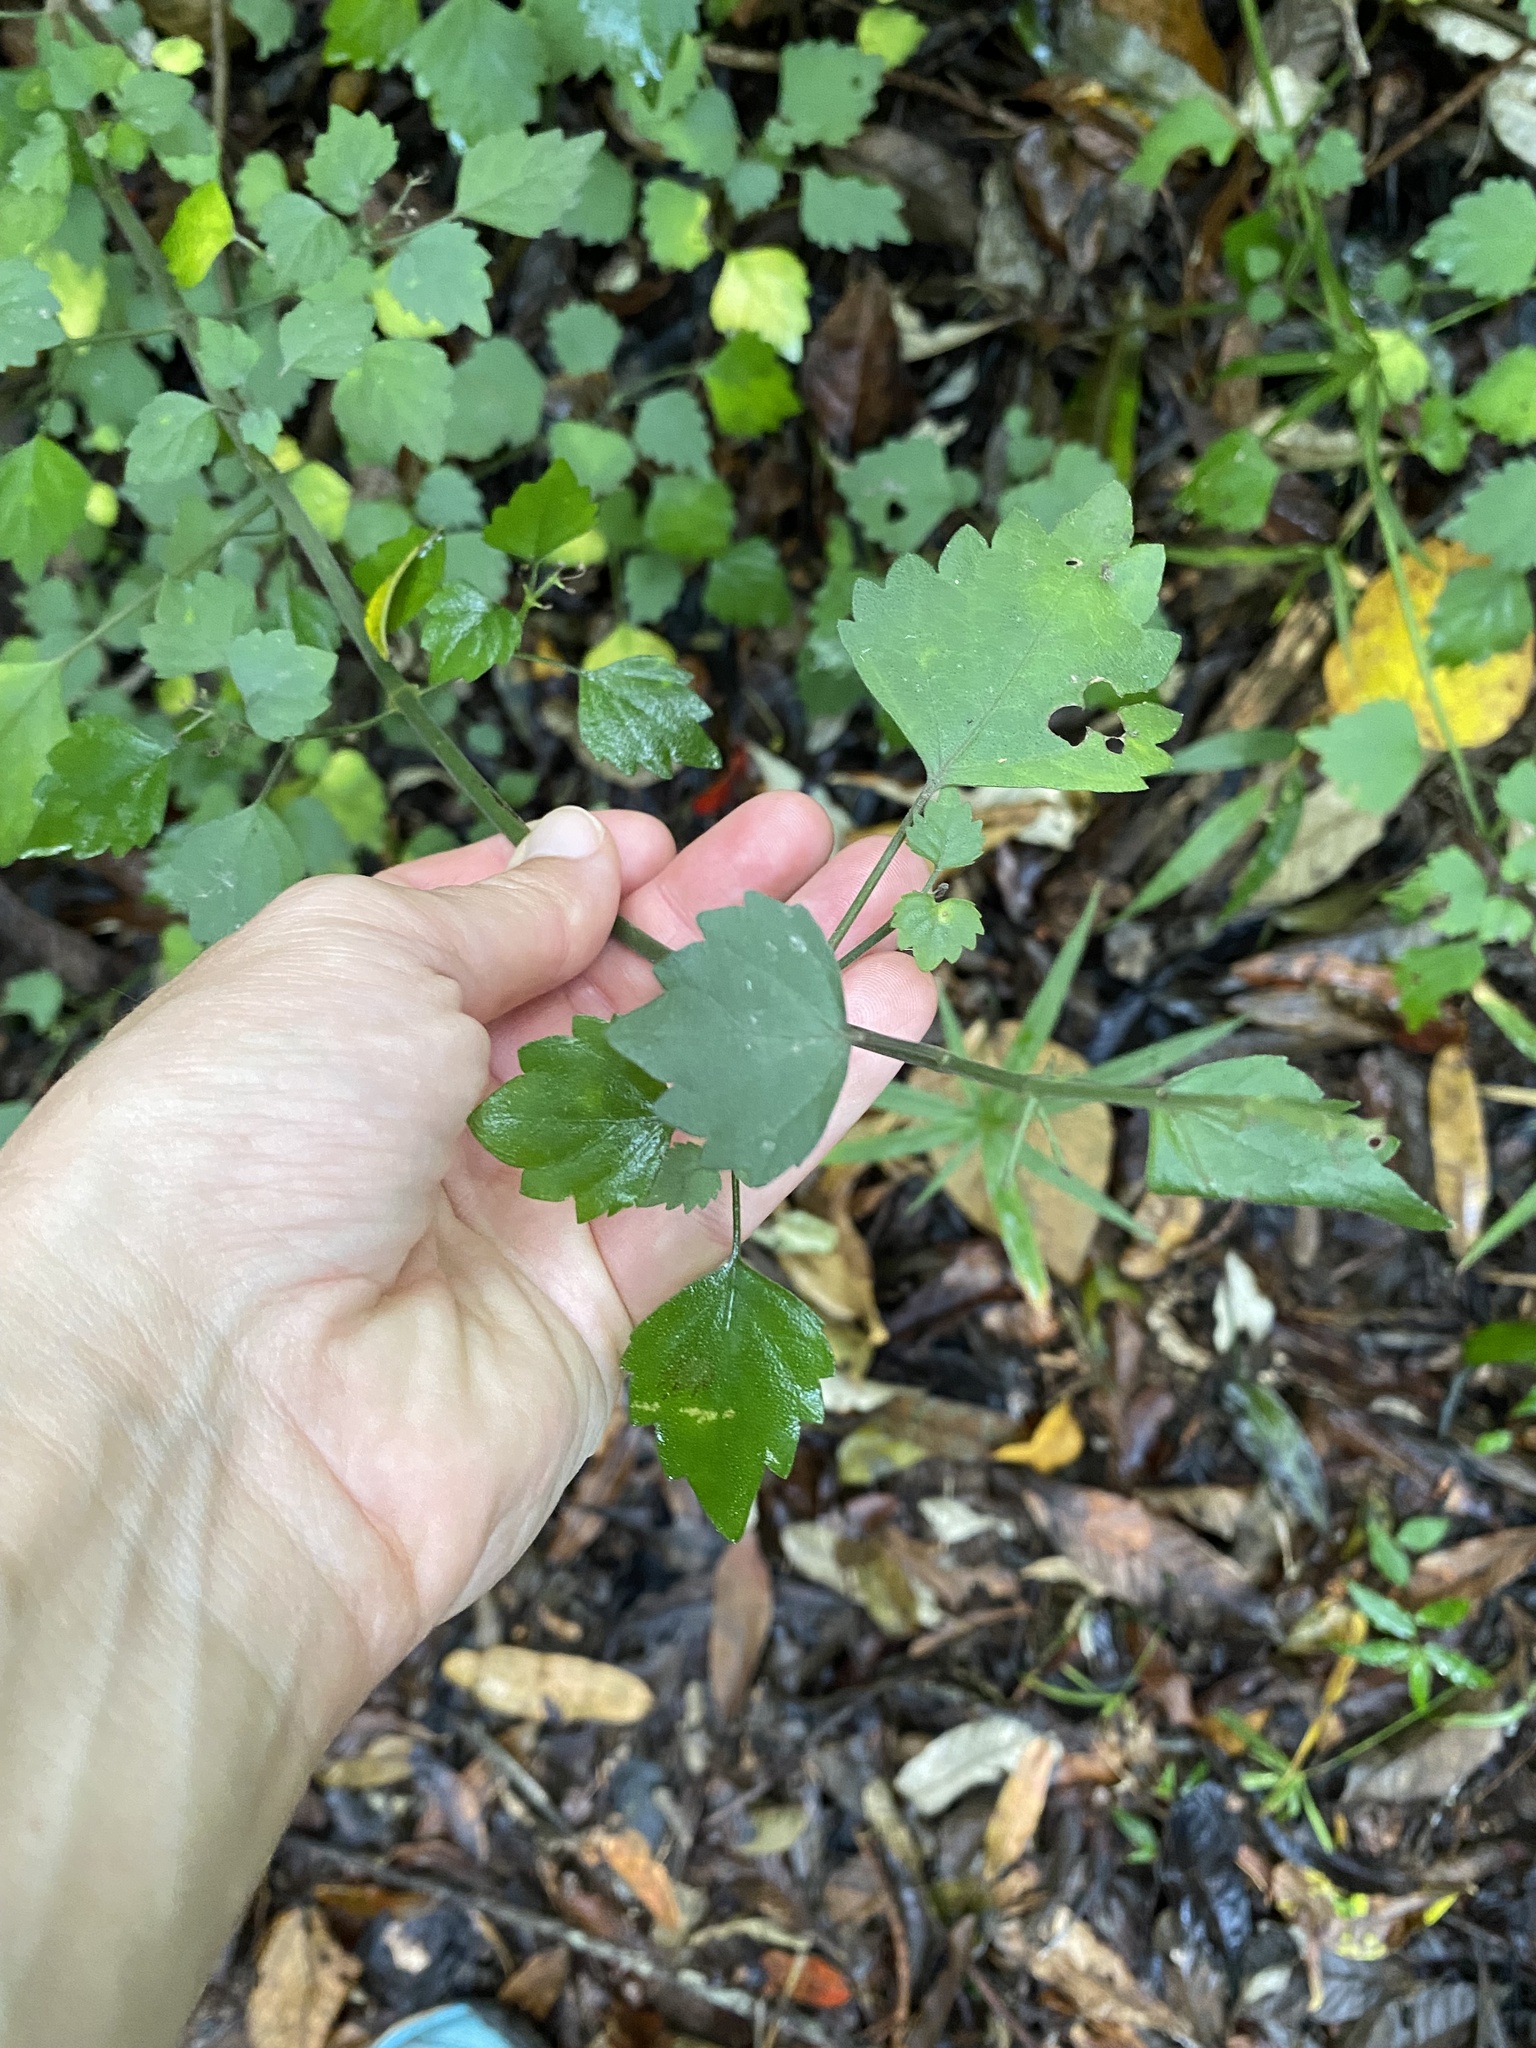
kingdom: Plantae
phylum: Tracheophyta
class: Magnoliopsida
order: Lamiales
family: Lamiaceae
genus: Plectranthus
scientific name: Plectranthus saccatus
